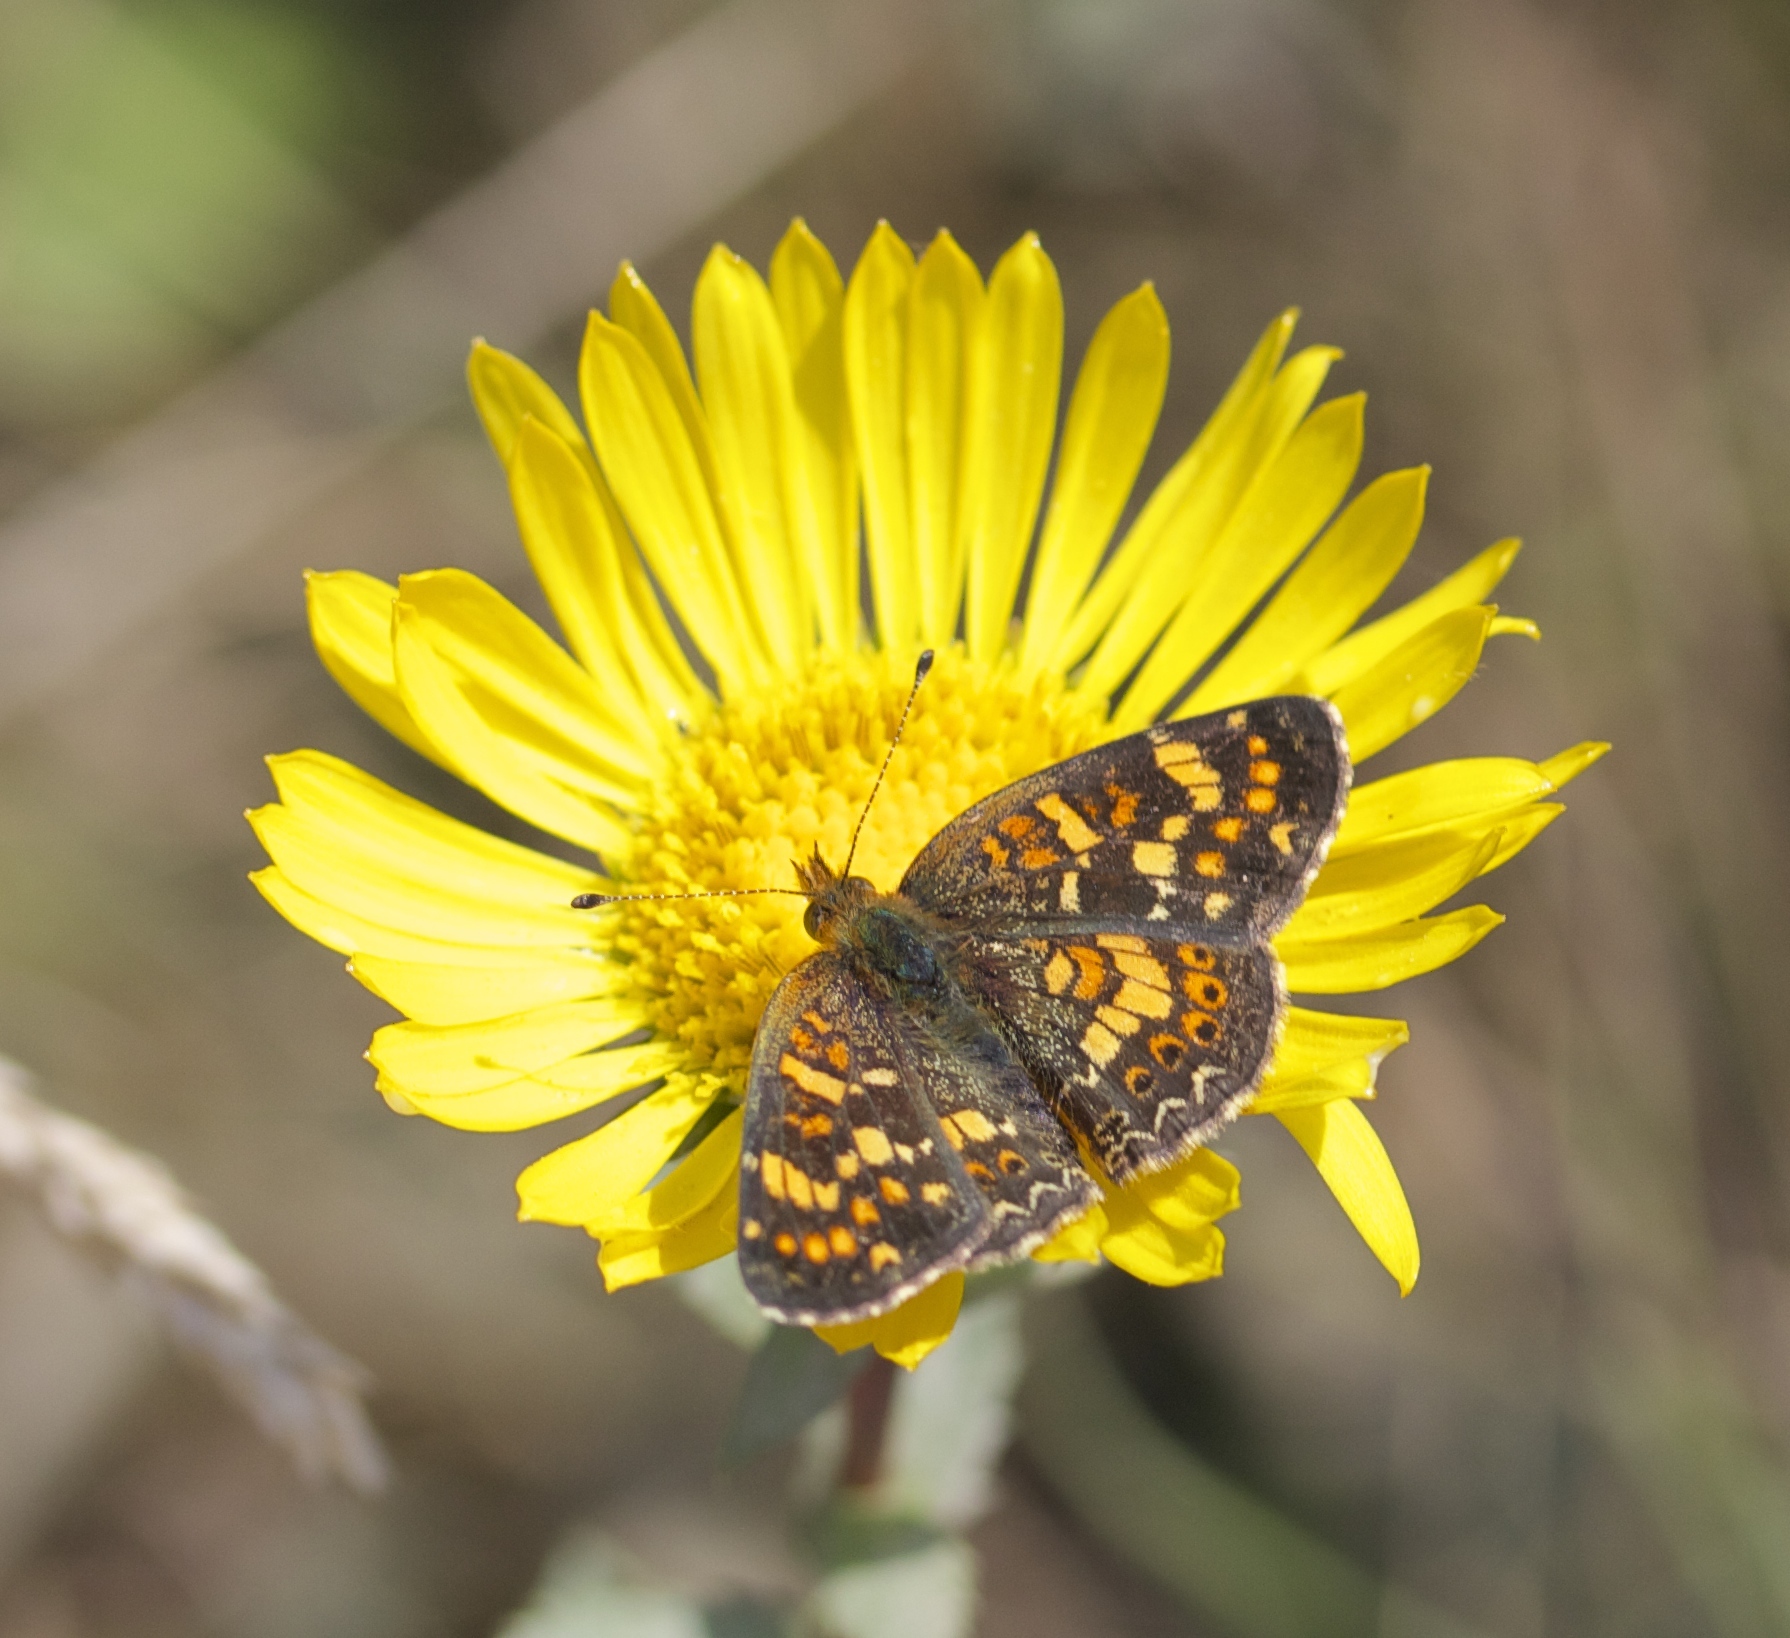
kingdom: Animalia
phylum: Arthropoda
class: Insecta
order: Lepidoptera
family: Nymphalidae
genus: Phyciodes
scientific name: Phyciodes tharos
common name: Pearl crescent
